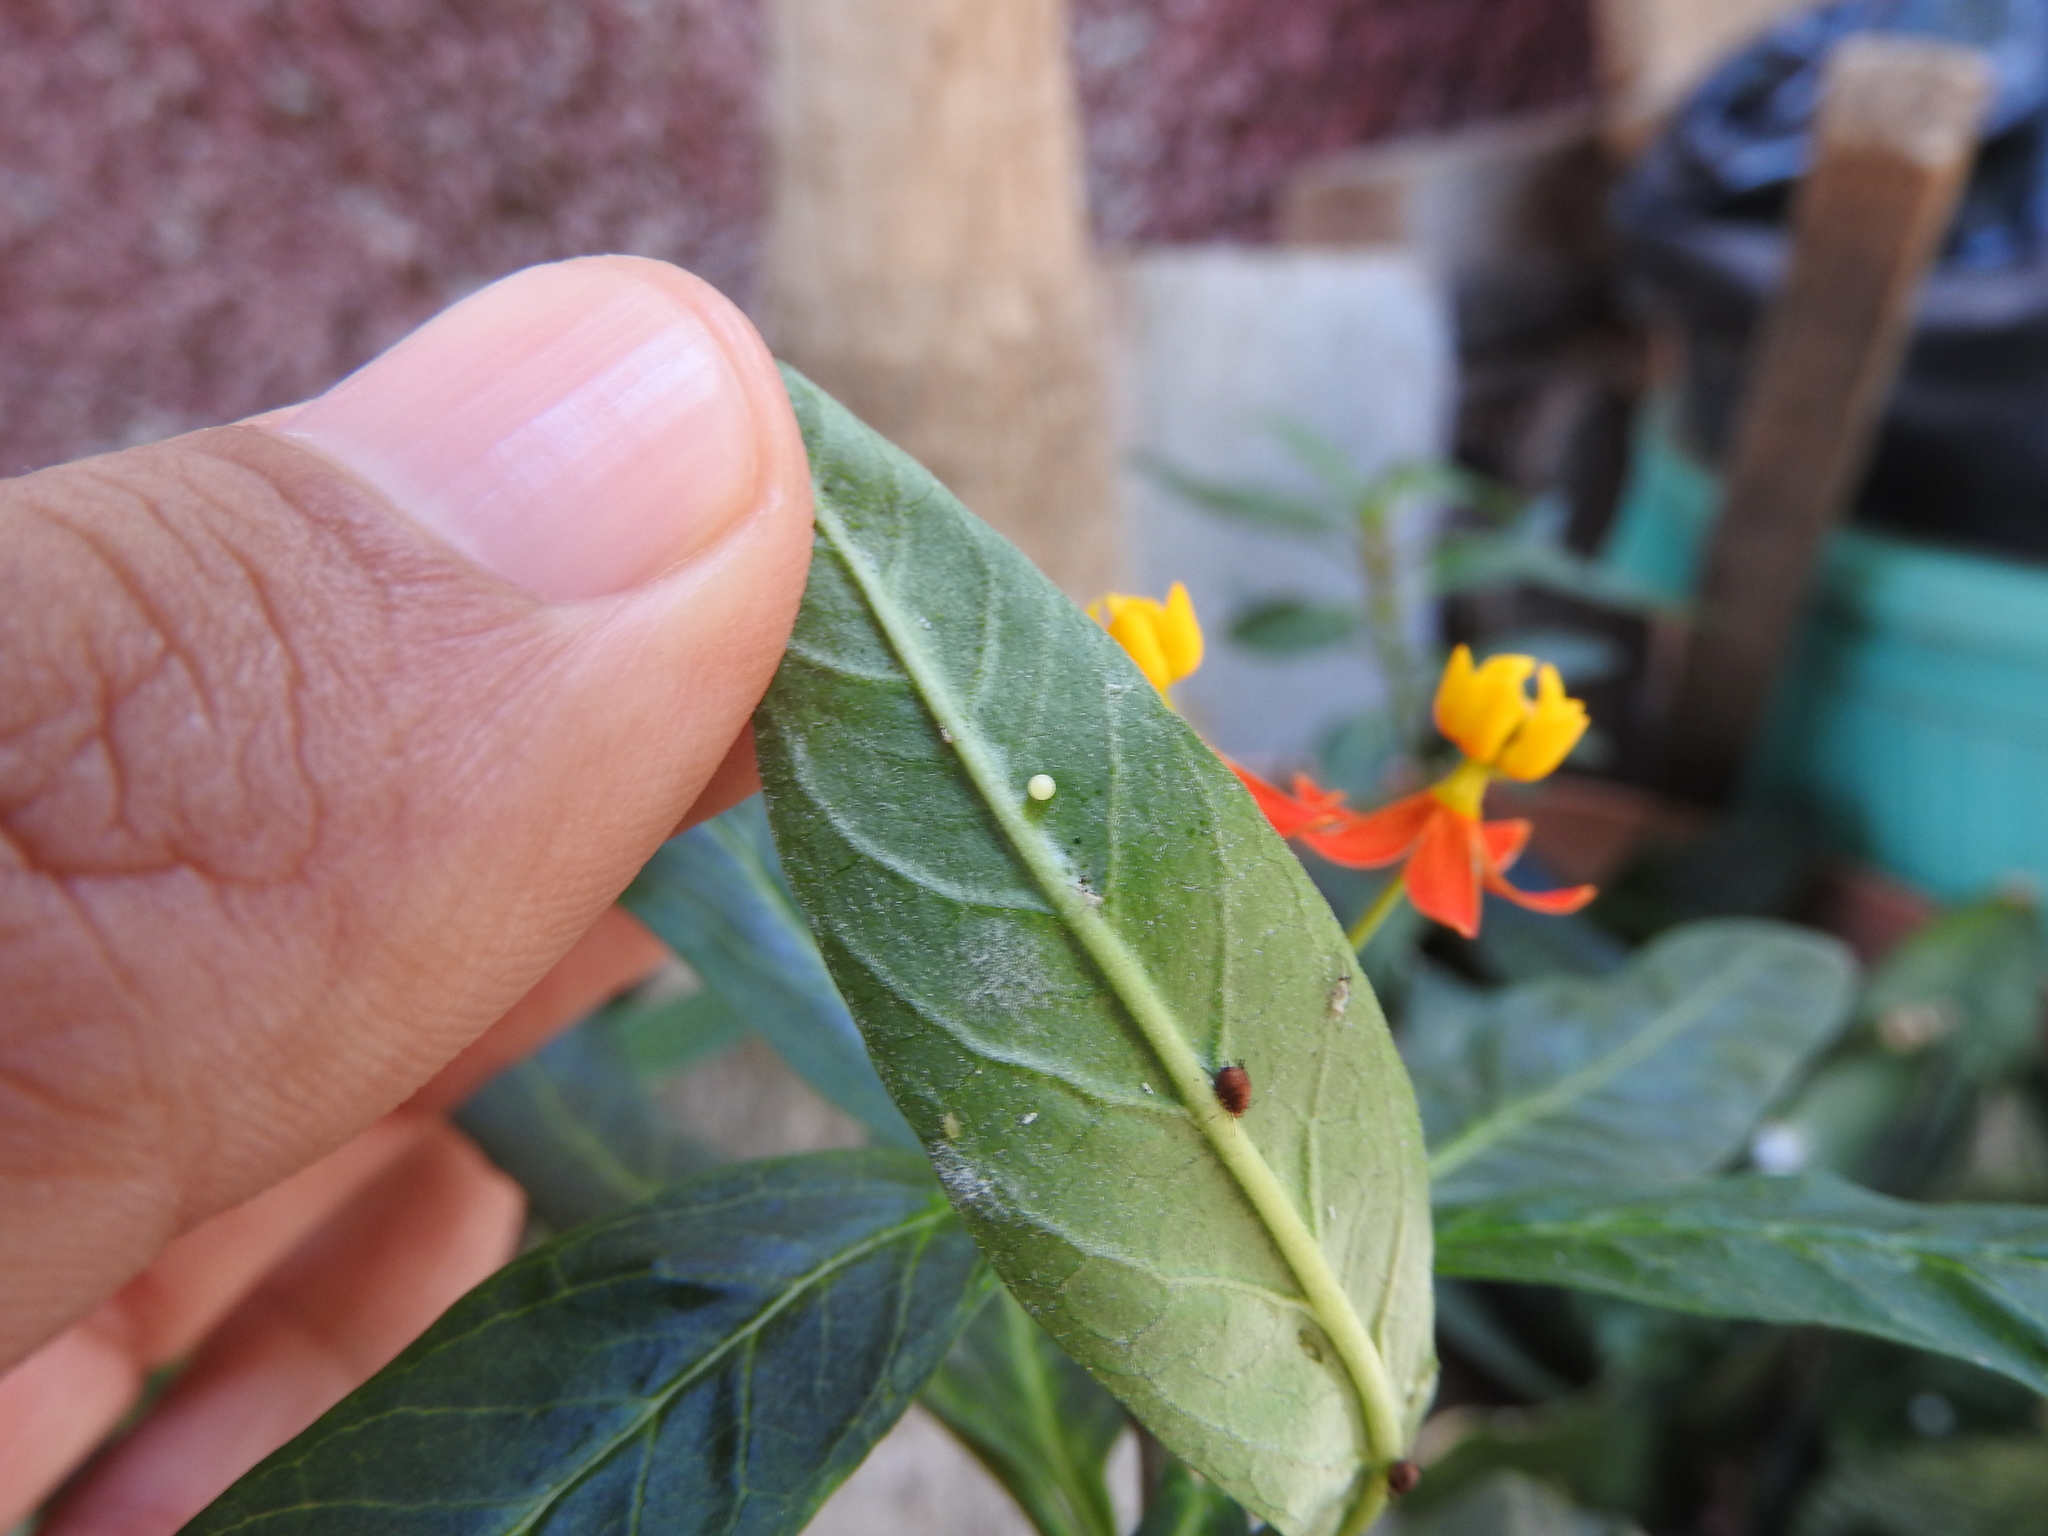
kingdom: Animalia
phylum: Arthropoda
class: Insecta
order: Lepidoptera
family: Nymphalidae
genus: Danaus
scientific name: Danaus plexippus
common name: Monarch
